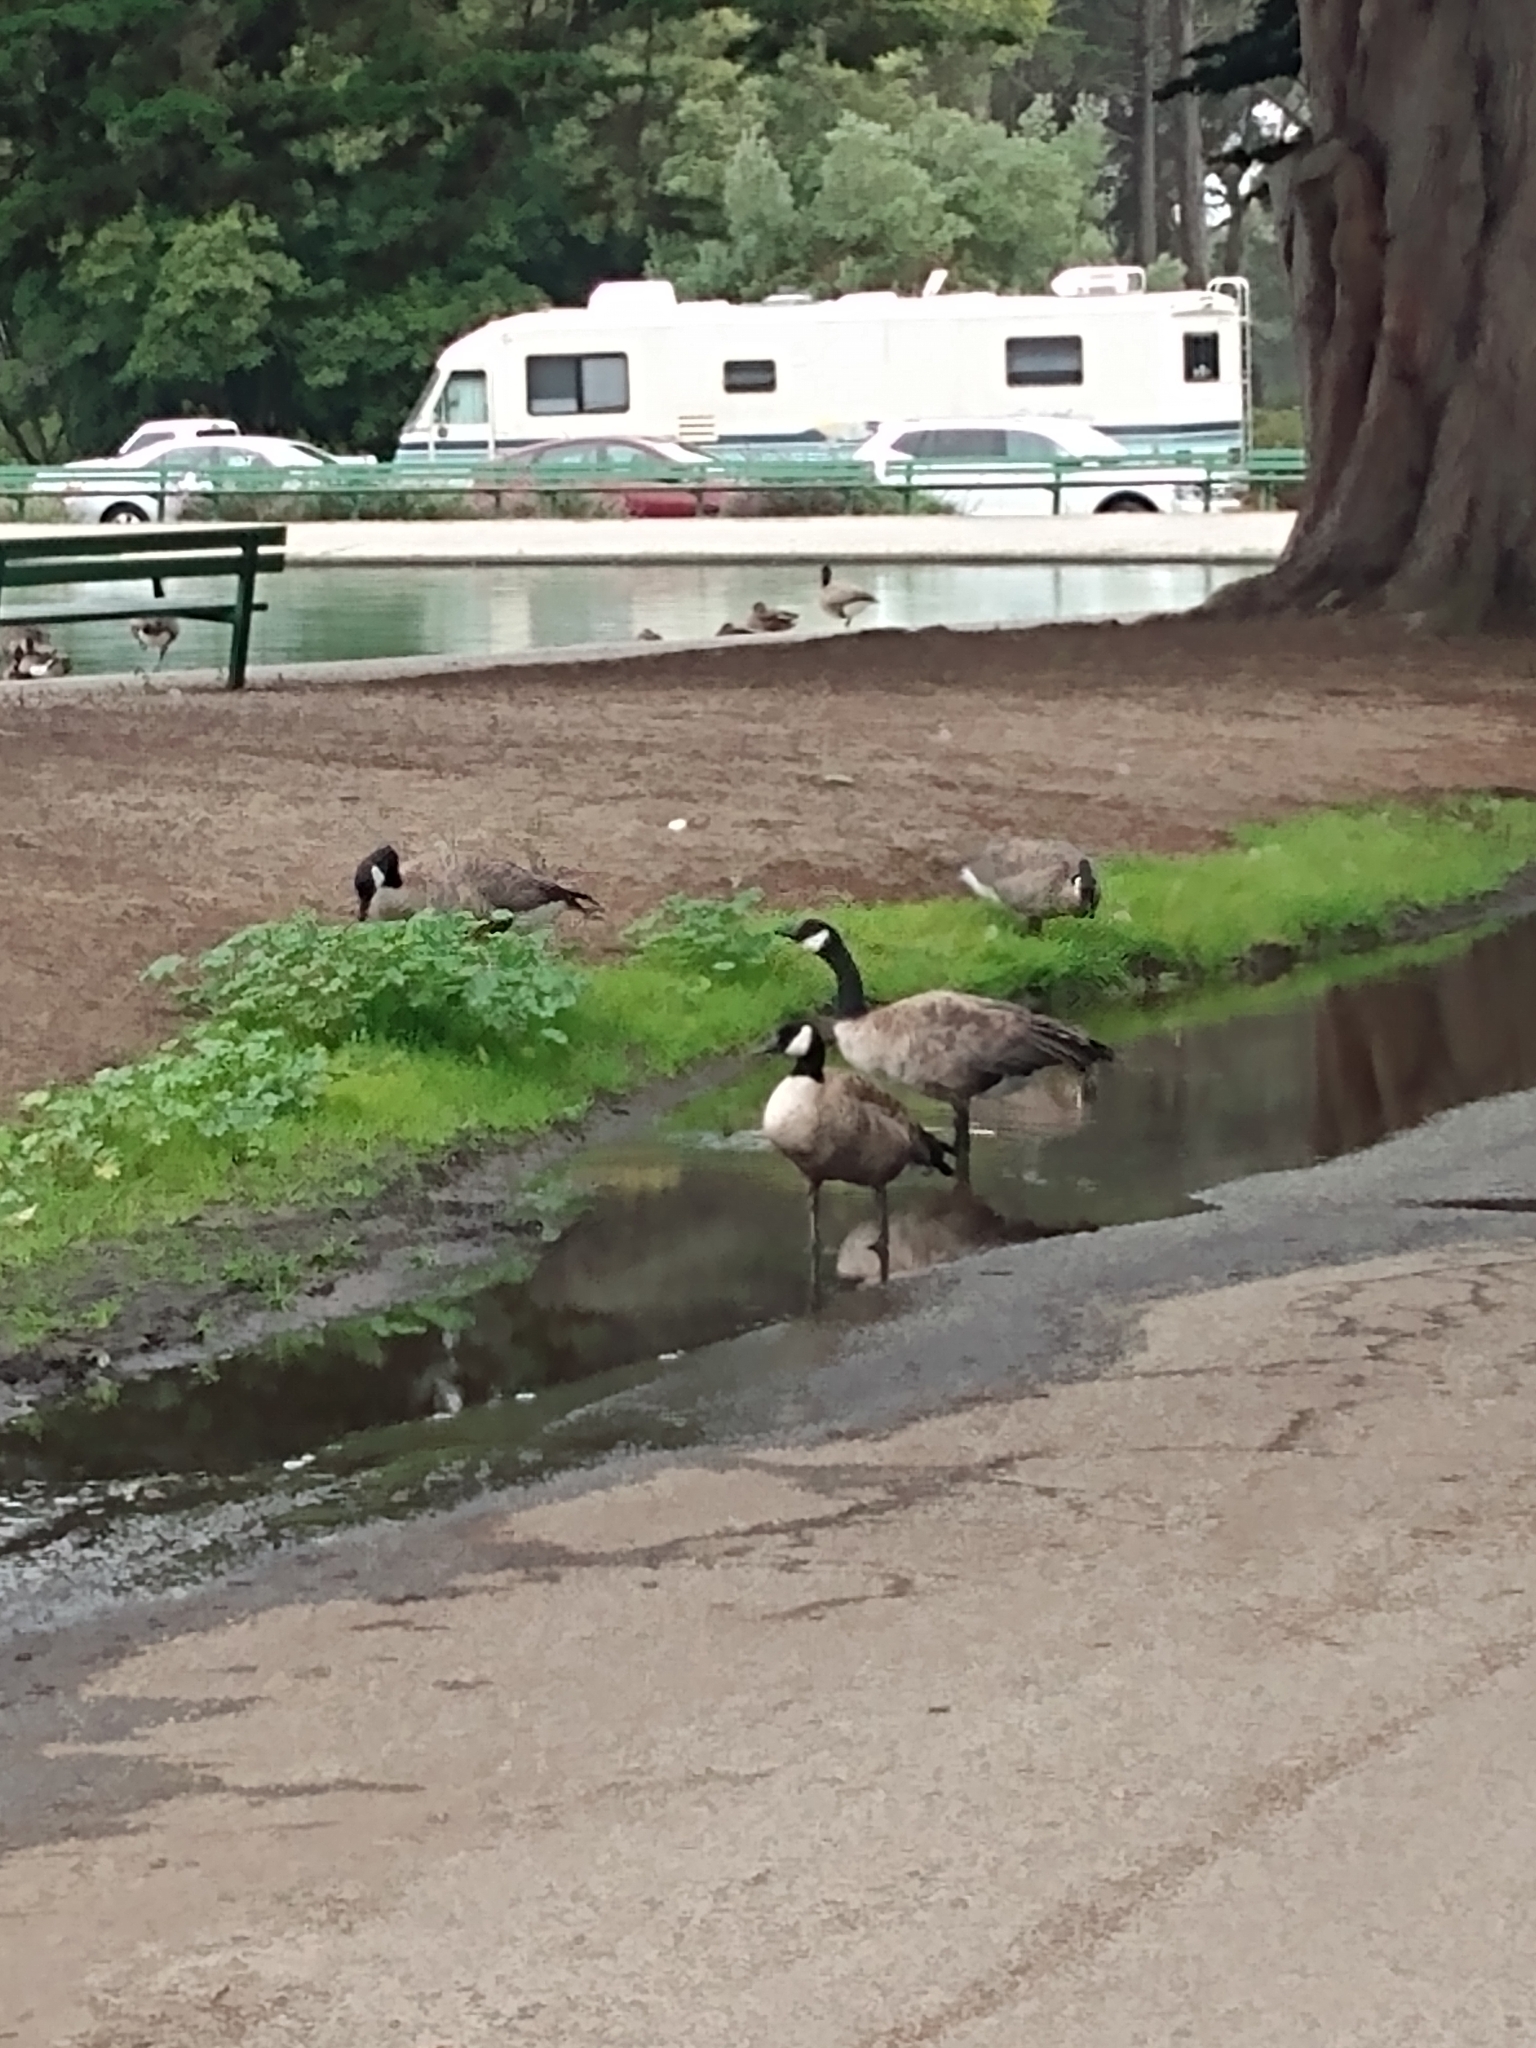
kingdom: Animalia
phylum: Chordata
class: Aves
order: Anseriformes
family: Anatidae
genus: Branta
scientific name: Branta canadensis
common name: Canada goose
